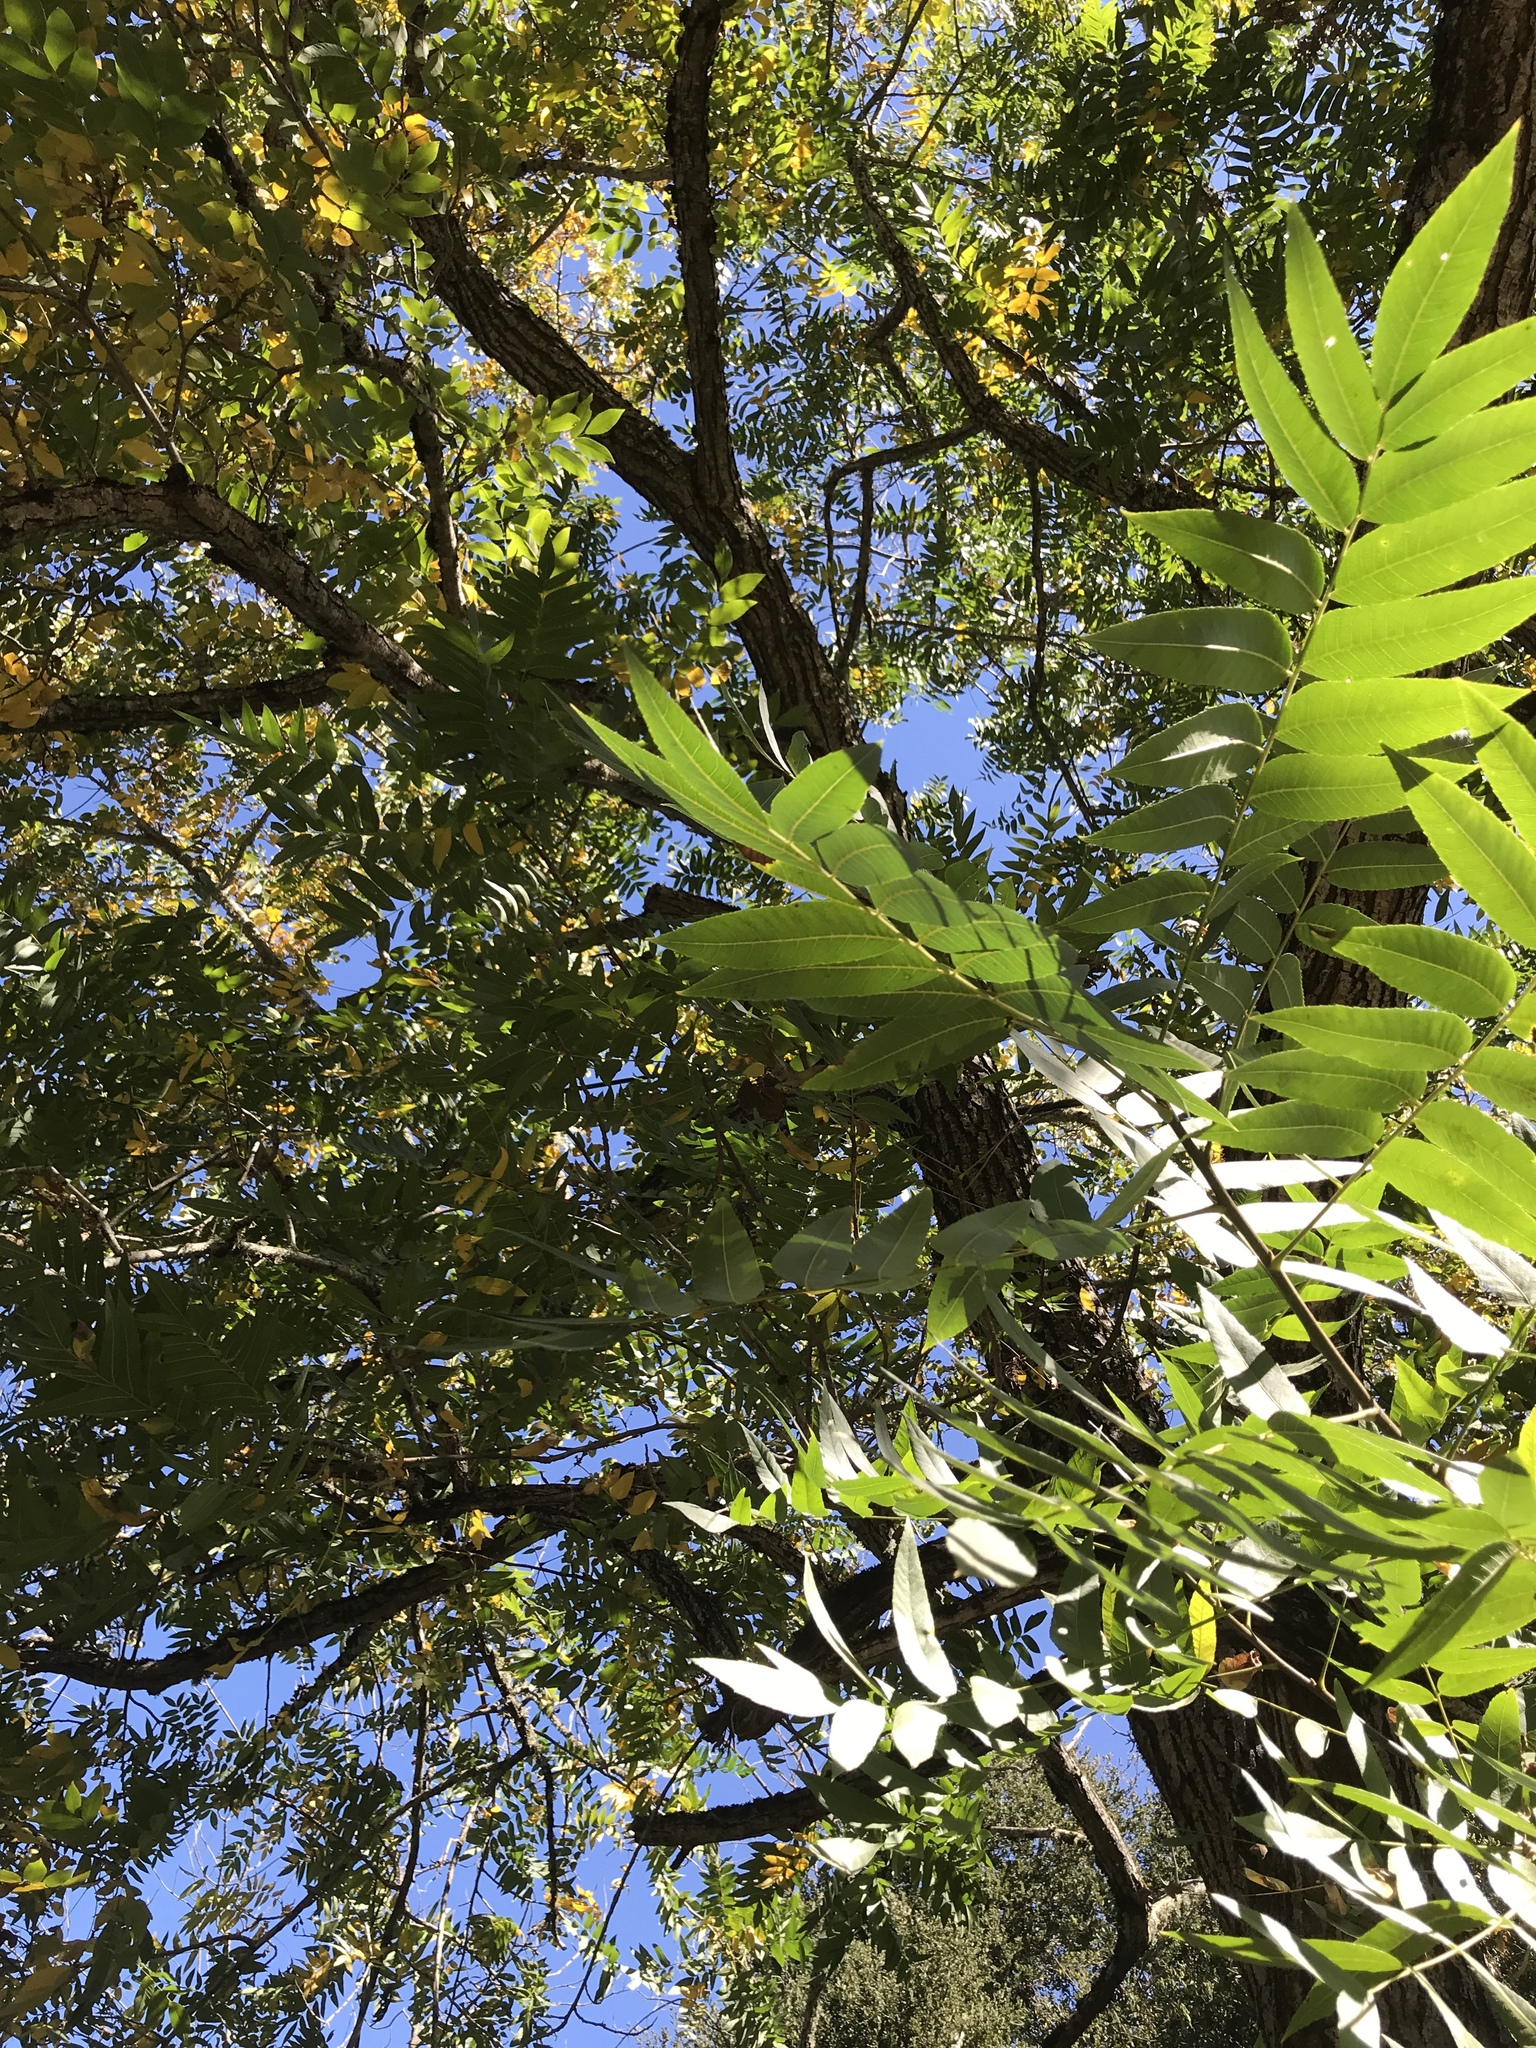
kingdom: Plantae
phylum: Tracheophyta
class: Magnoliopsida
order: Fagales
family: Juglandaceae
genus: Juglans
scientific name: Juglans hindsii
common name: Northern california black walnut
